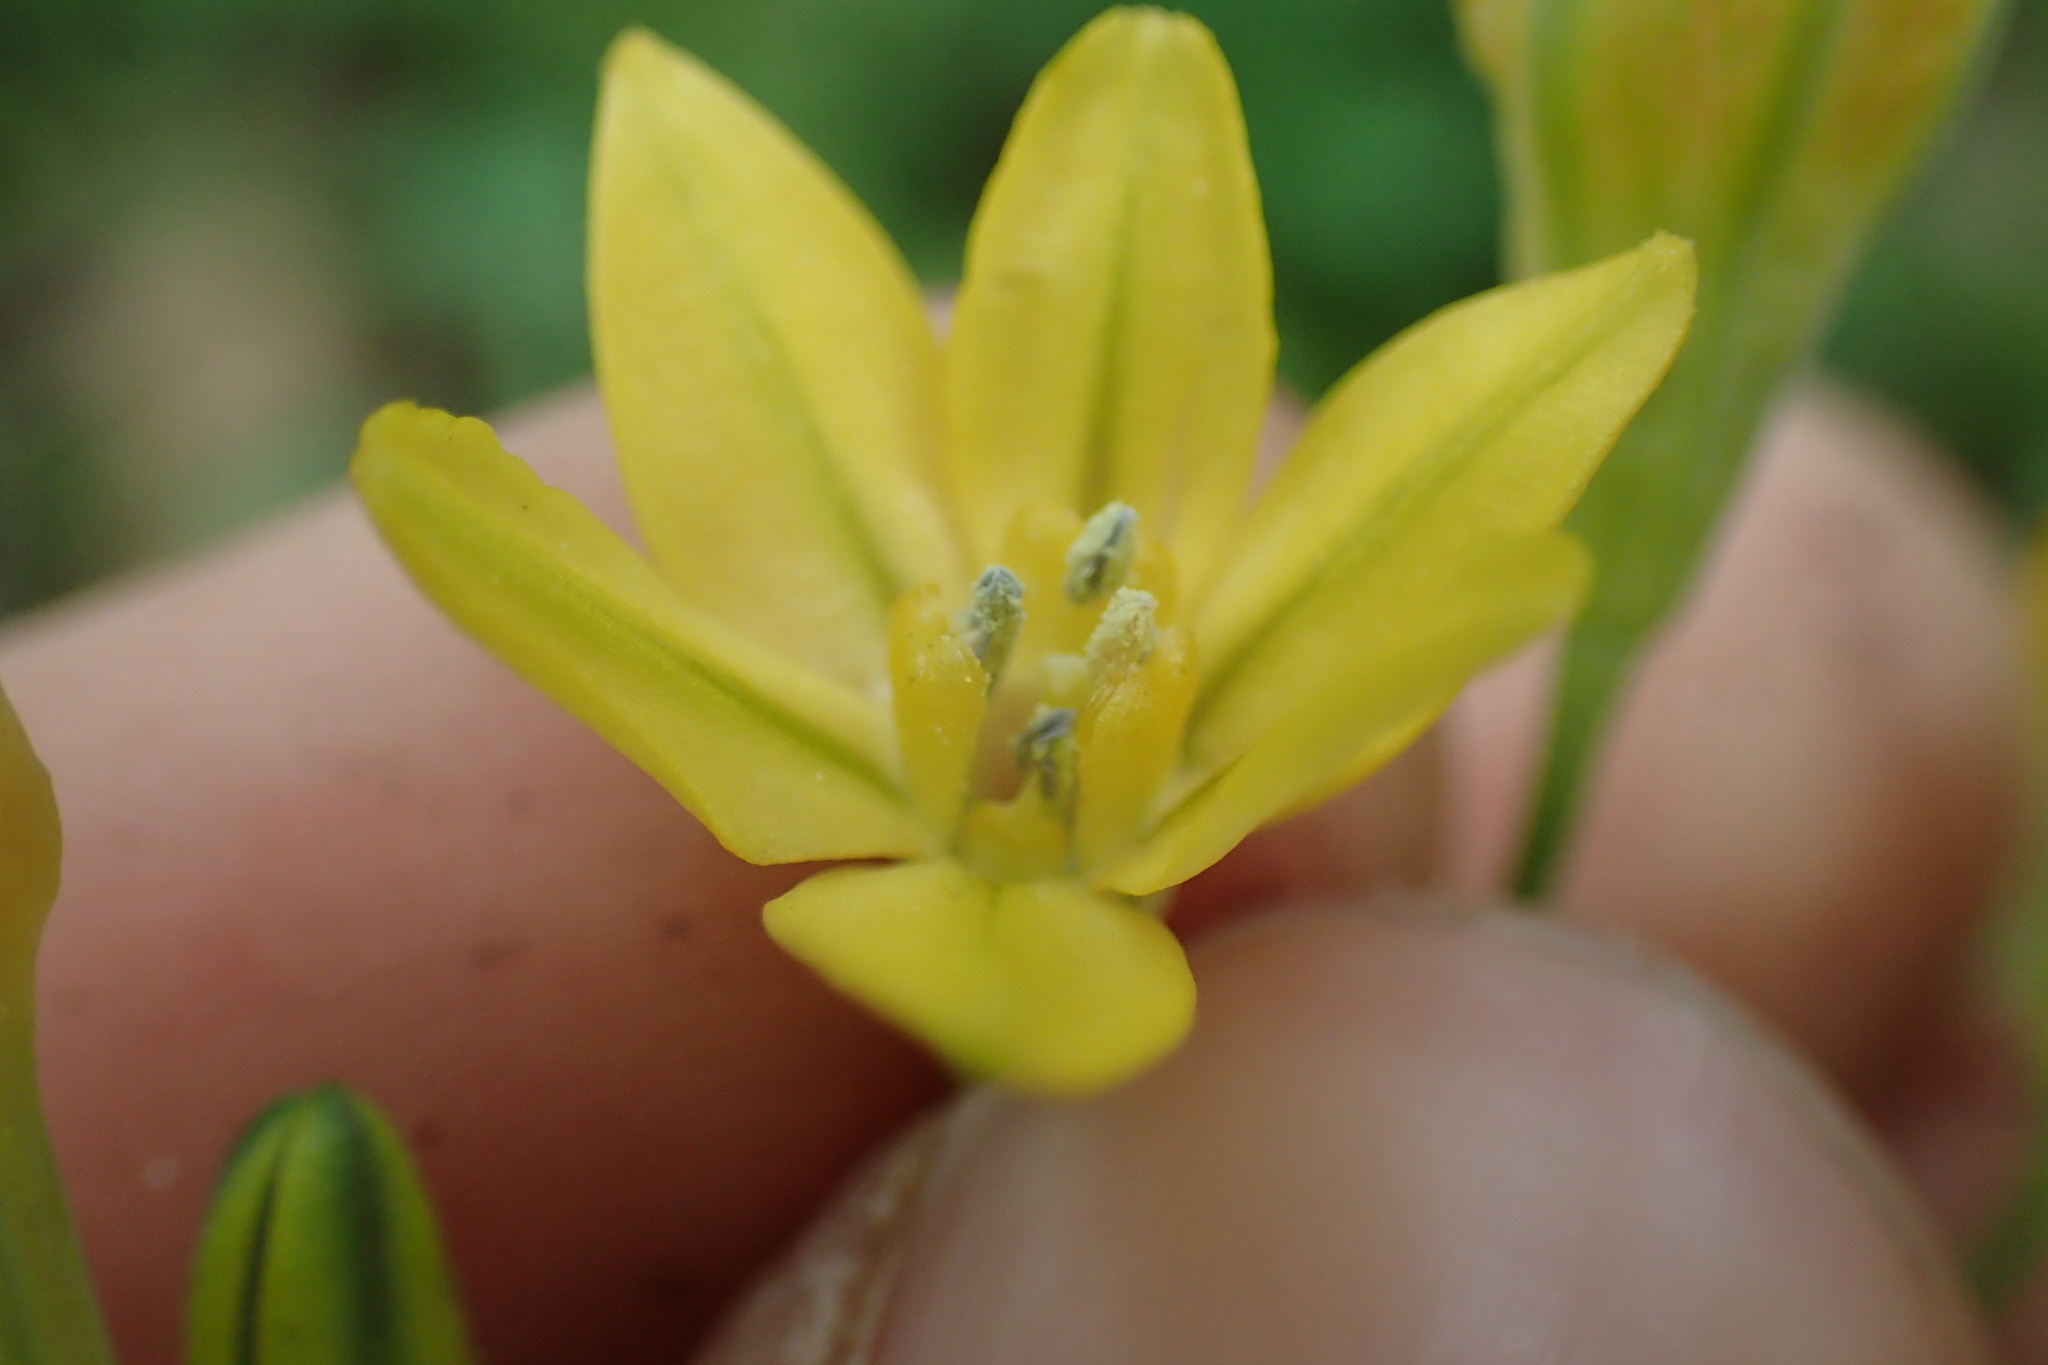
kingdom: Plantae
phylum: Tracheophyta
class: Liliopsida
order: Asparagales
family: Asparagaceae
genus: Triteleia
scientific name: Triteleia lugens
